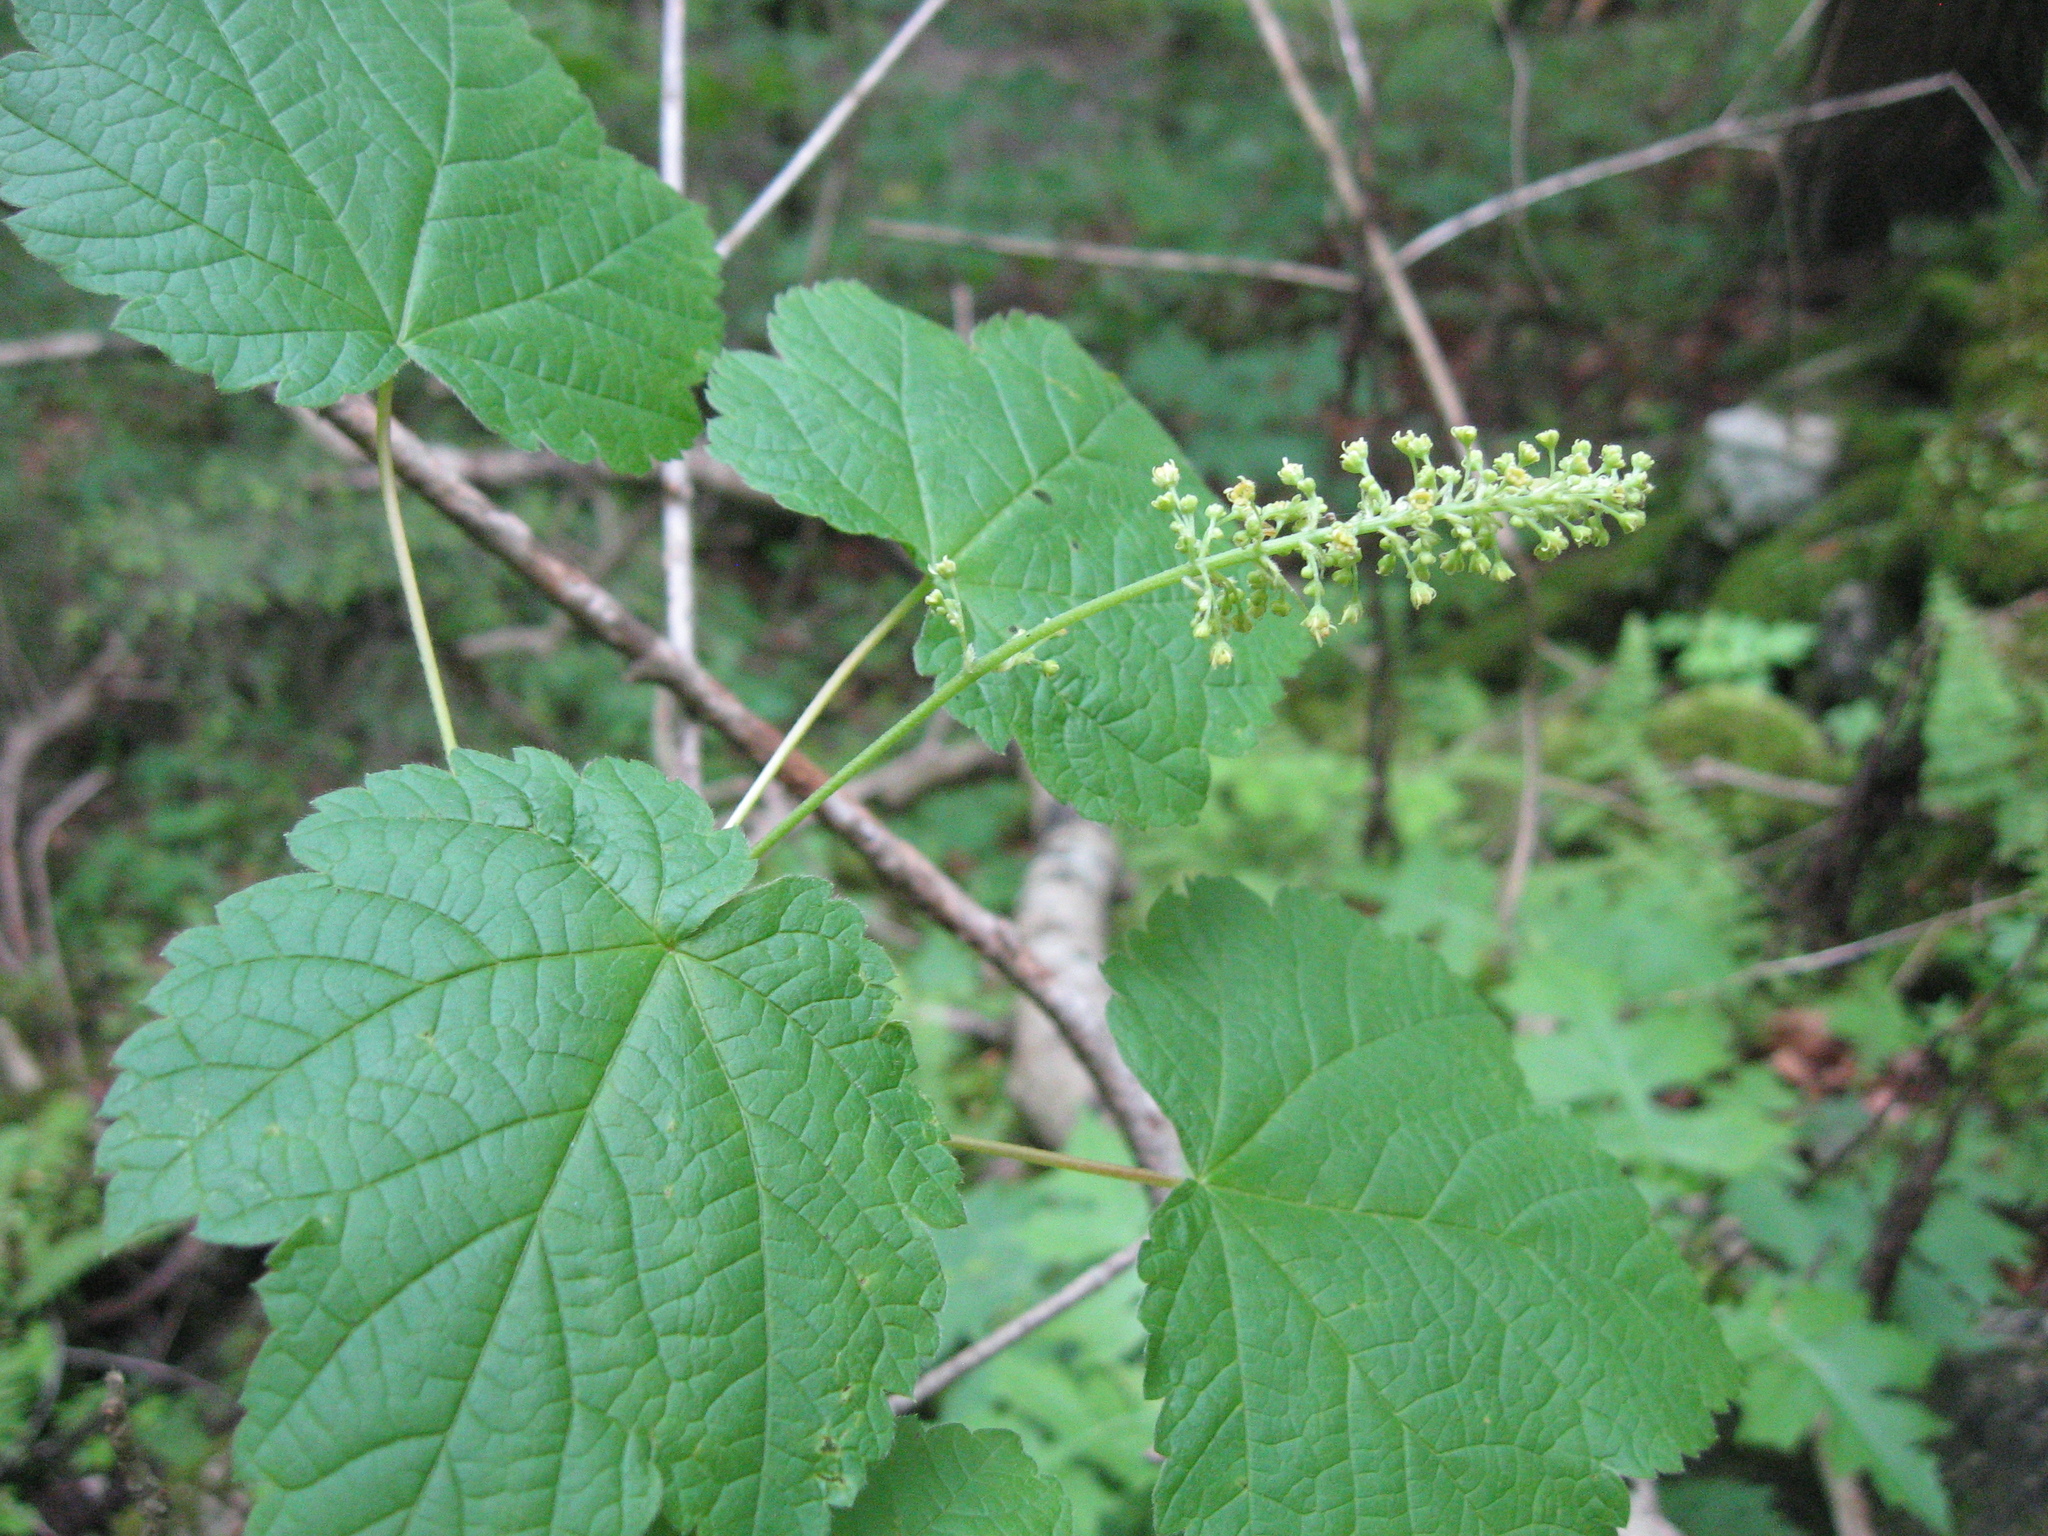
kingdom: Plantae
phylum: Tracheophyta
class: Magnoliopsida
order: Sapindales
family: Sapindaceae
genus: Acer
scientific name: Acer spicatum
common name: Mountain maple
